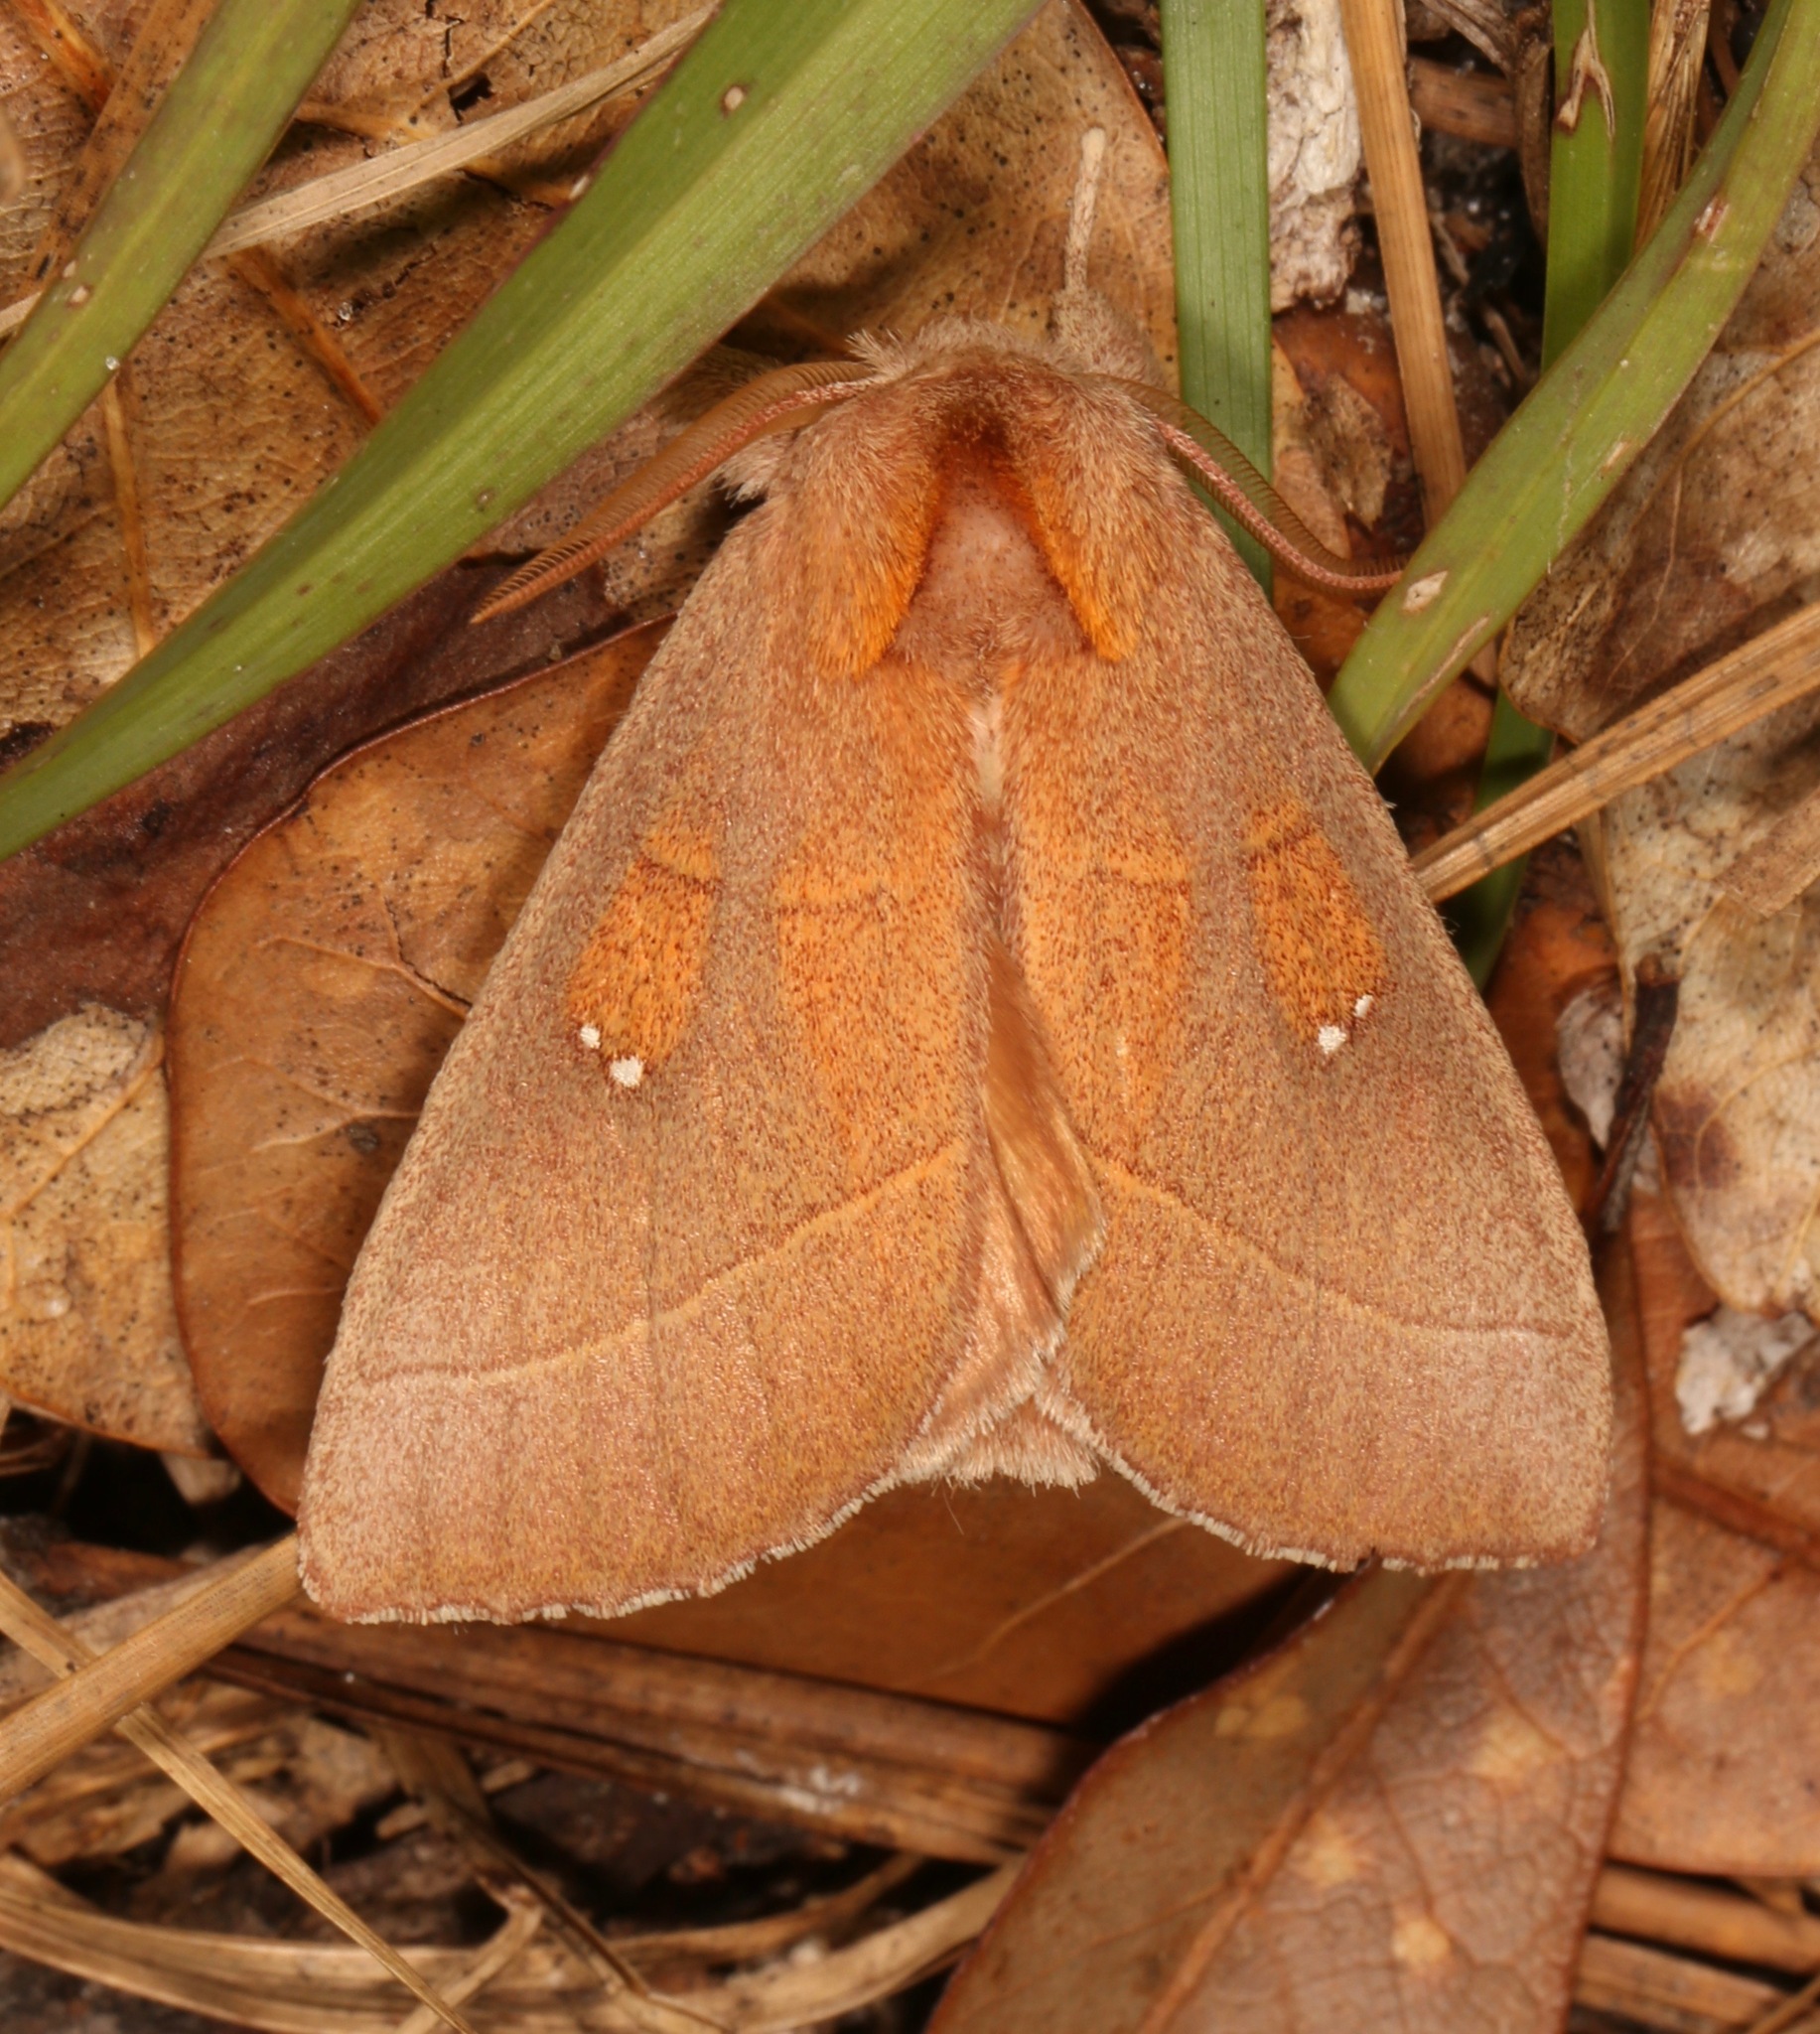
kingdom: Animalia
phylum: Arthropoda
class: Insecta
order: Lepidoptera
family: Notodontidae
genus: Nadata
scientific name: Nadata gibbosa
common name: White-dotted prominent
